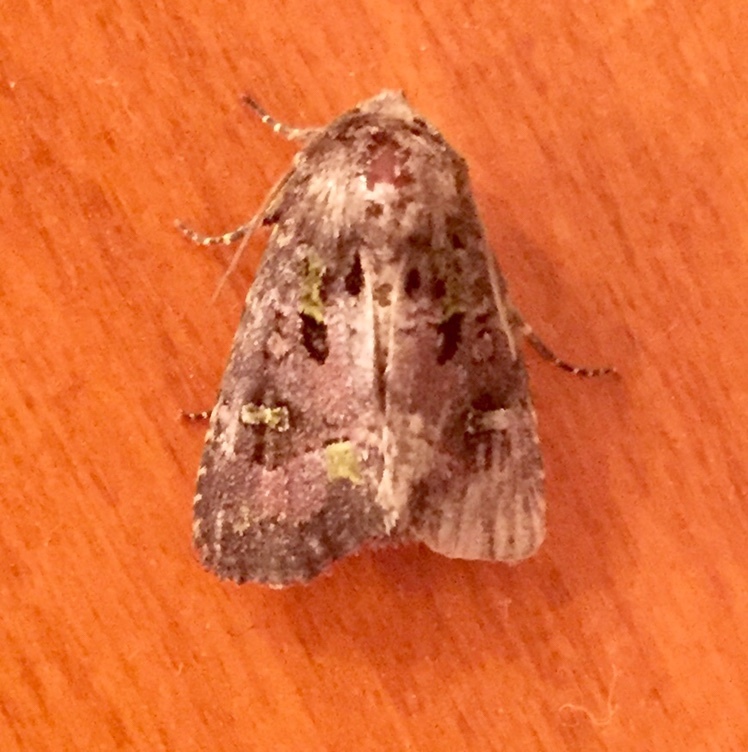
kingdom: Animalia
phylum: Arthropoda
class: Insecta
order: Lepidoptera
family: Noctuidae
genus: Lacinipolia
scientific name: Lacinipolia renigera
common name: Kidney-spotted minor
